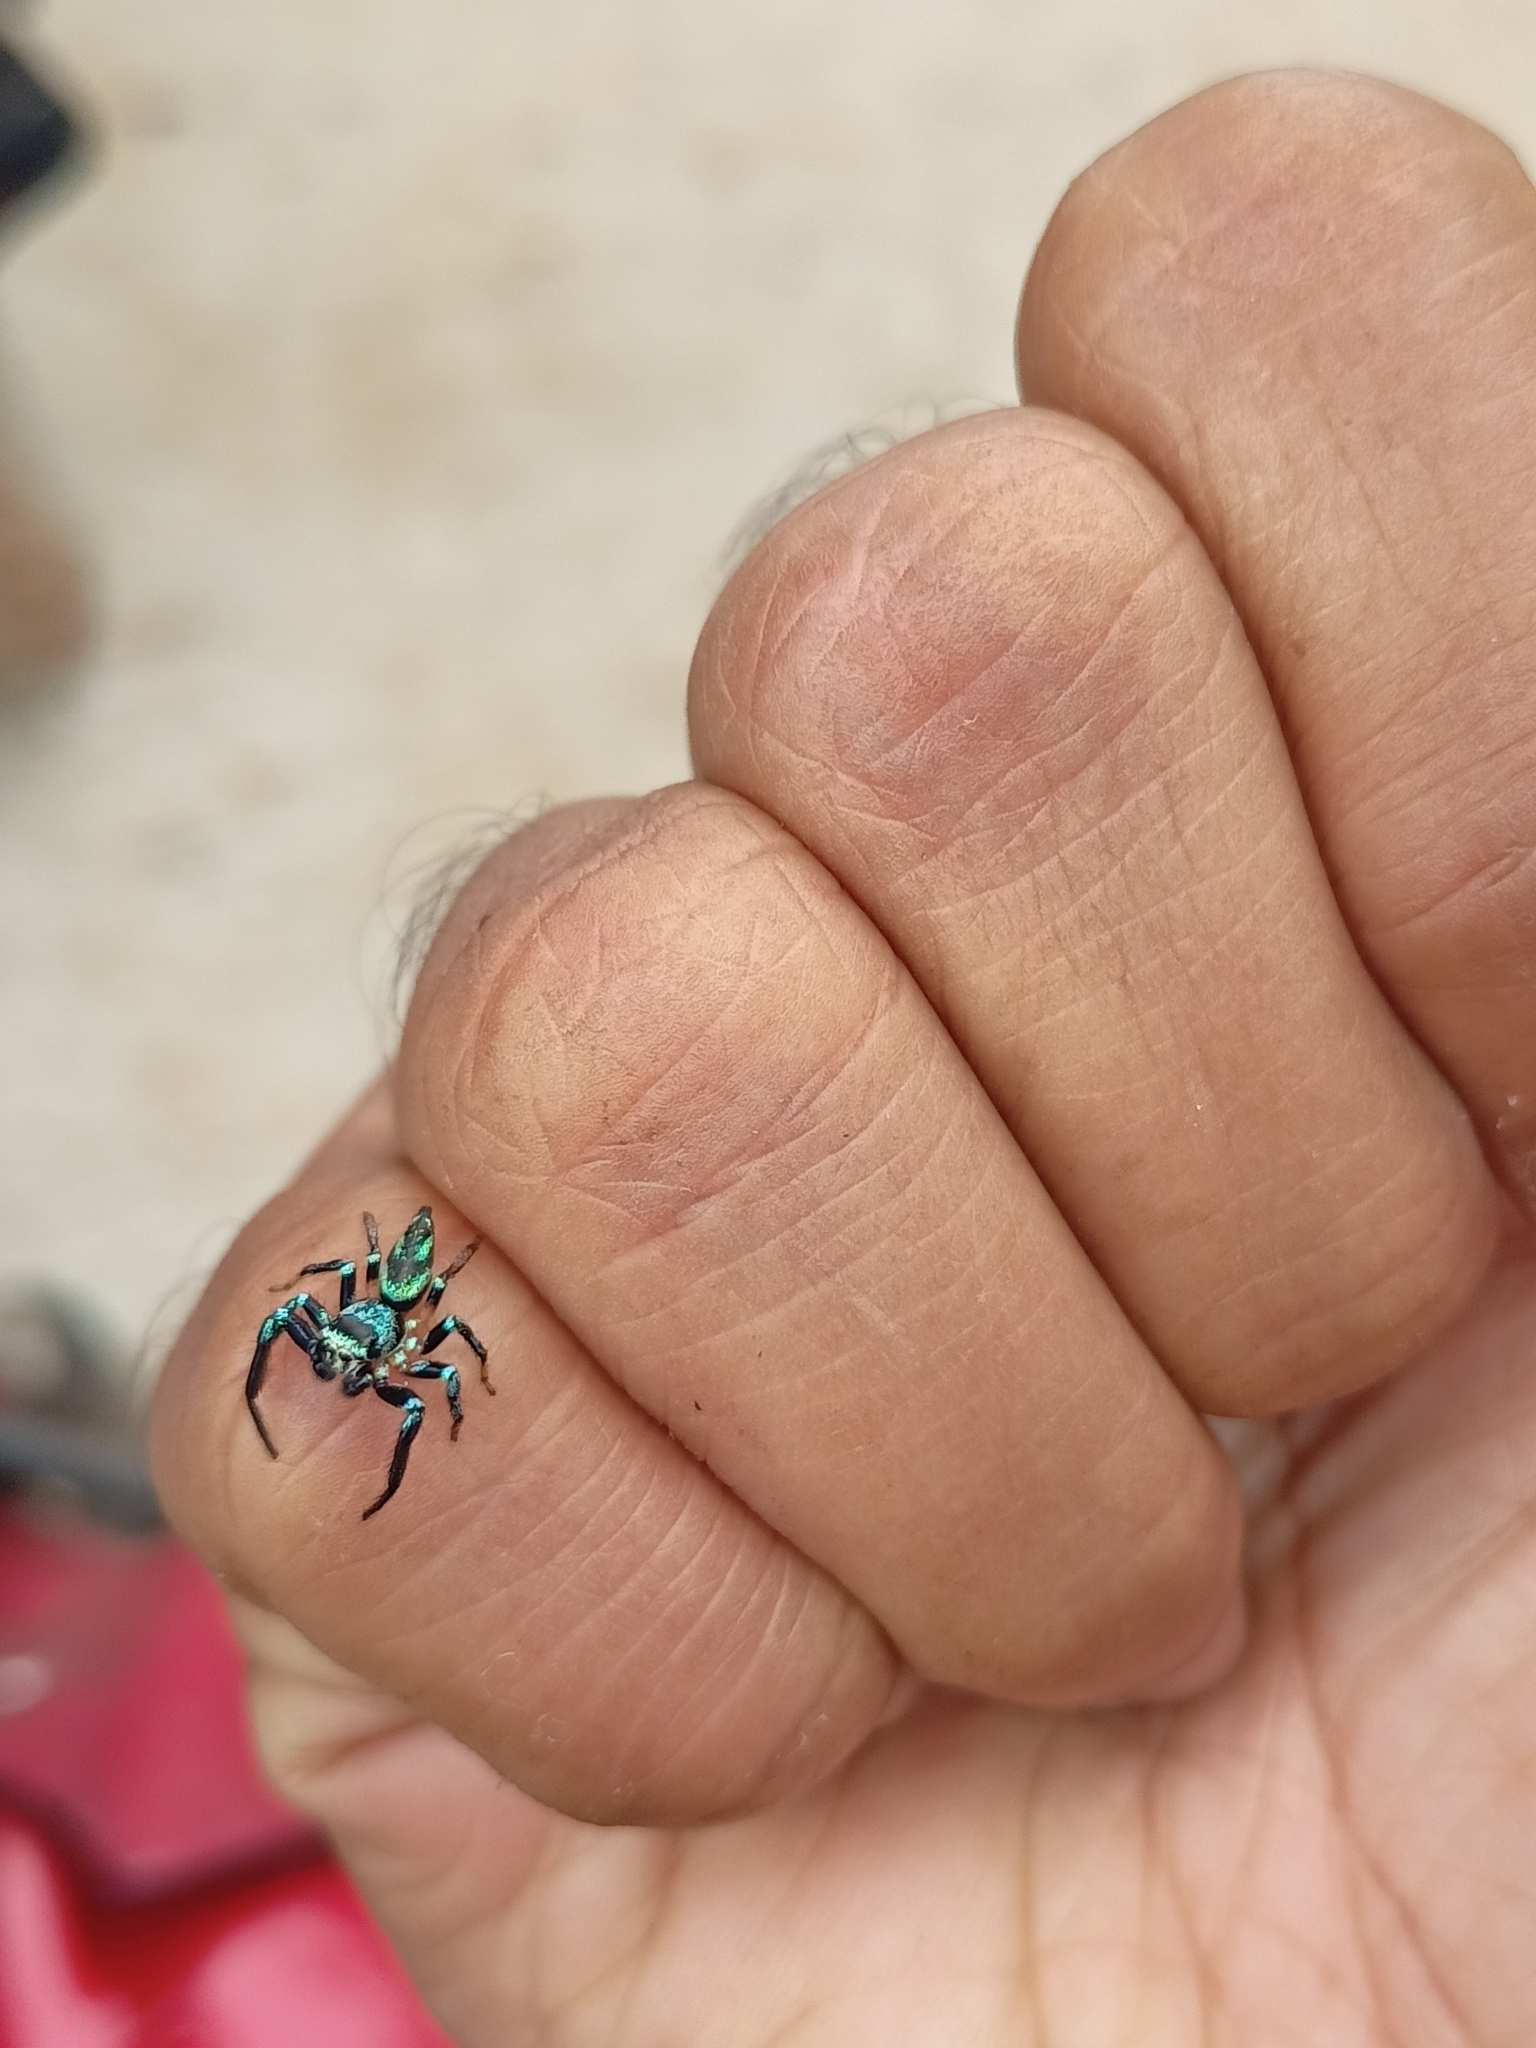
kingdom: Animalia
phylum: Arthropoda
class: Arachnida
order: Araneae
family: Salticidae
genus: Thiania
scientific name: Thiania bhamoensis
